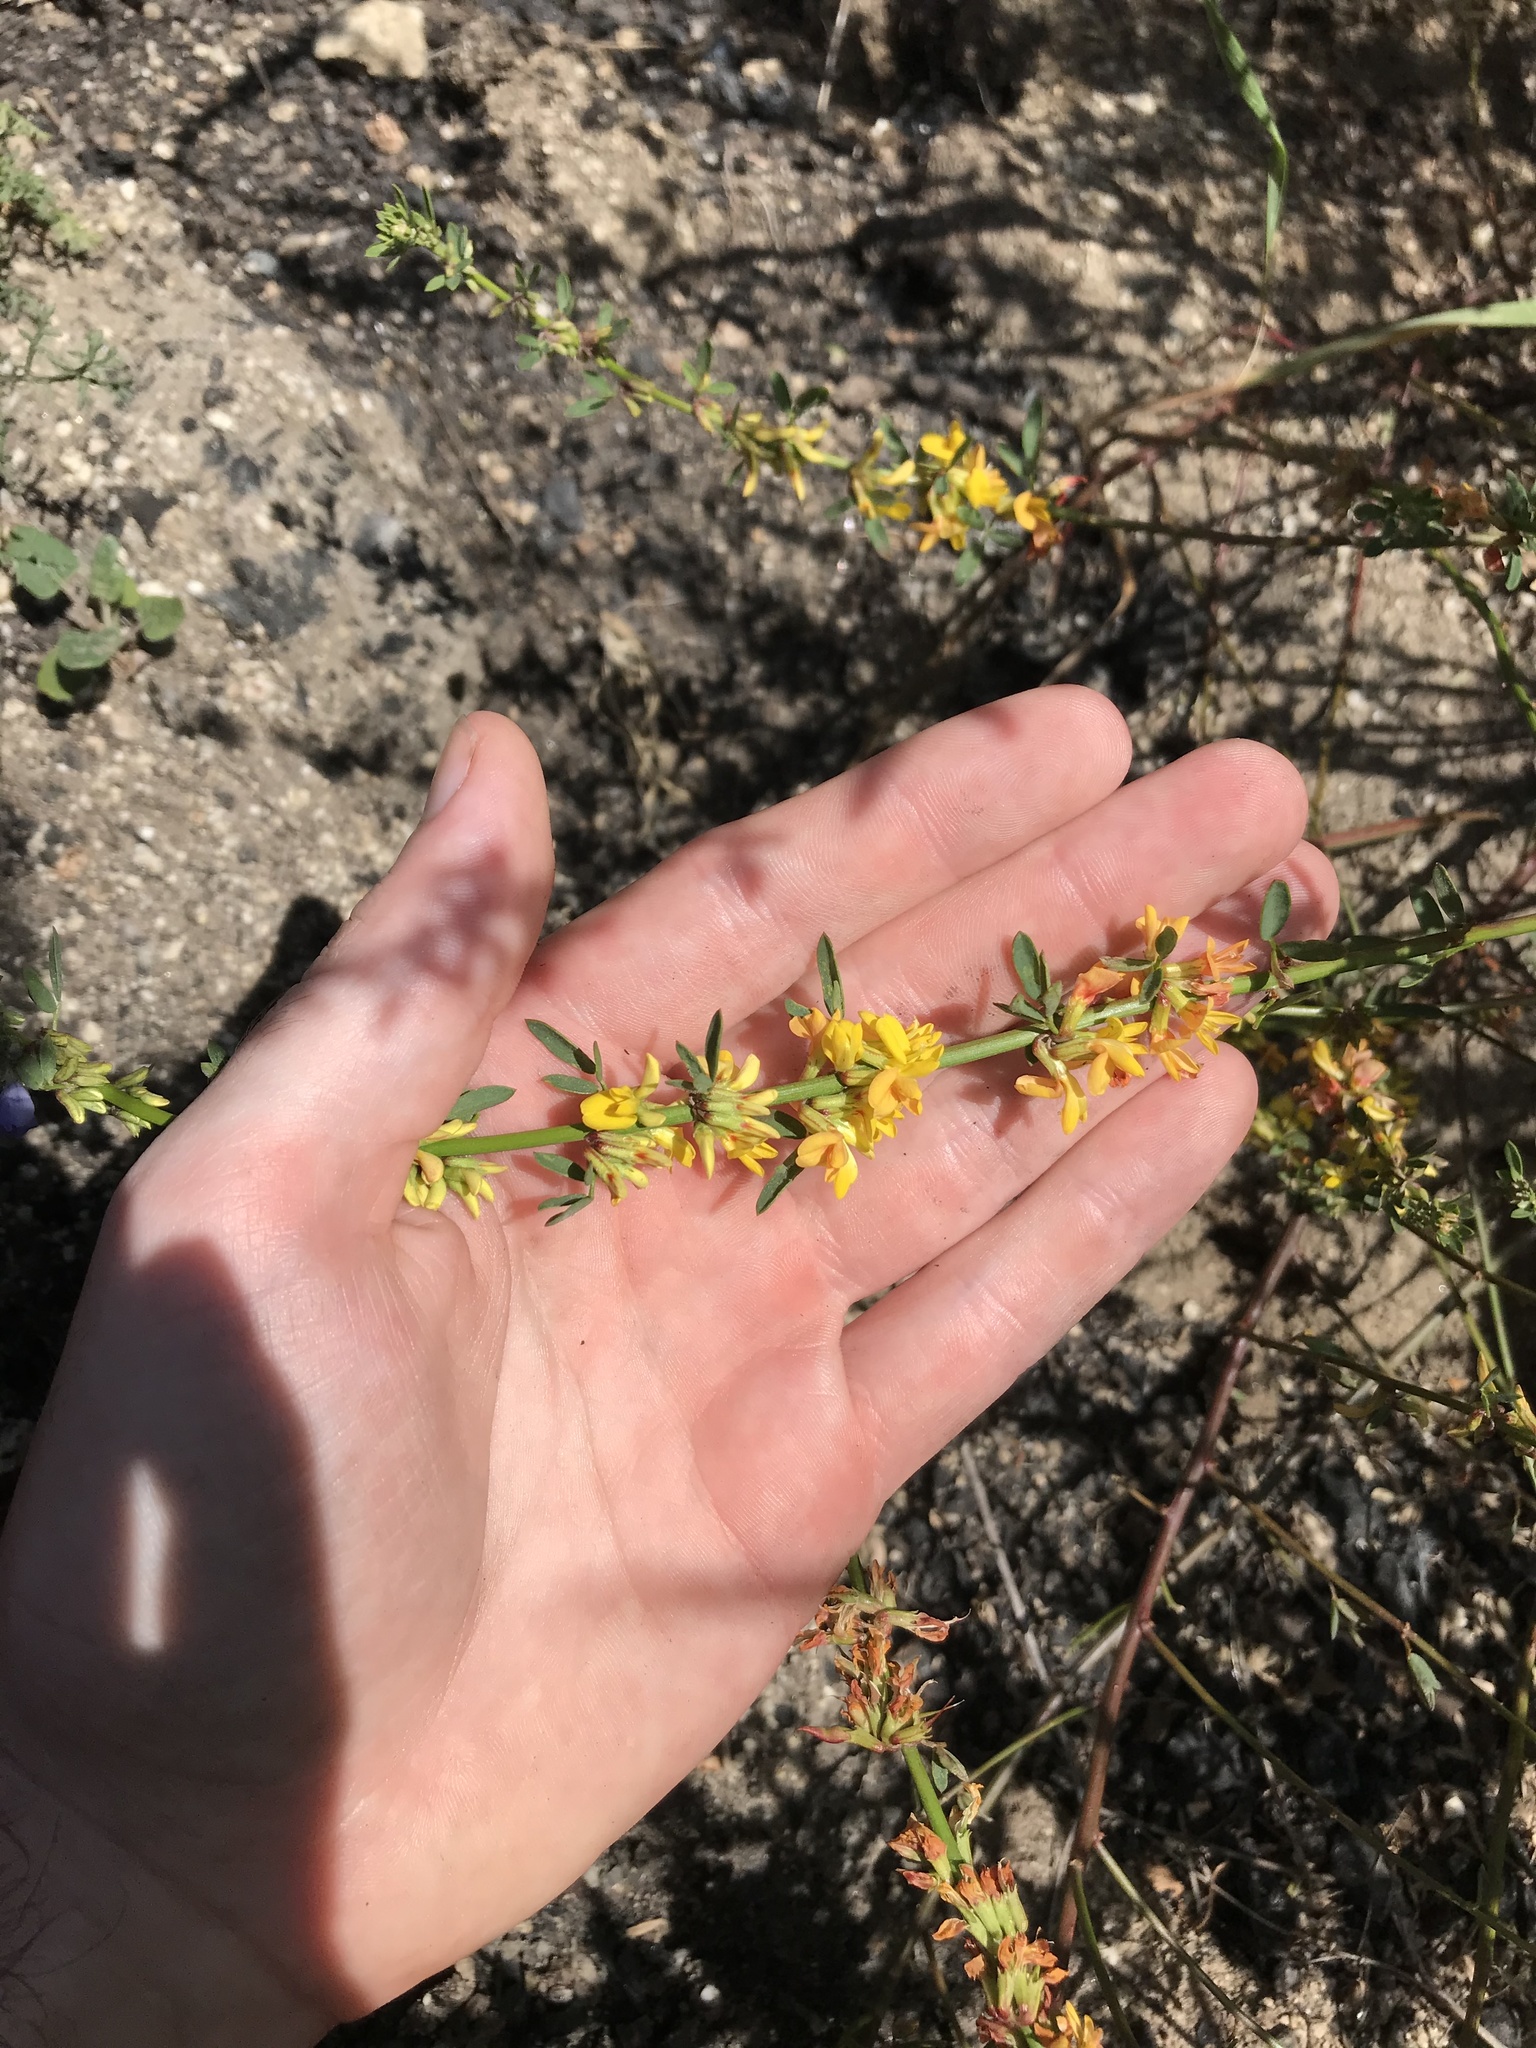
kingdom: Plantae
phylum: Tracheophyta
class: Magnoliopsida
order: Fabales
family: Fabaceae
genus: Acmispon
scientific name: Acmispon glaber
